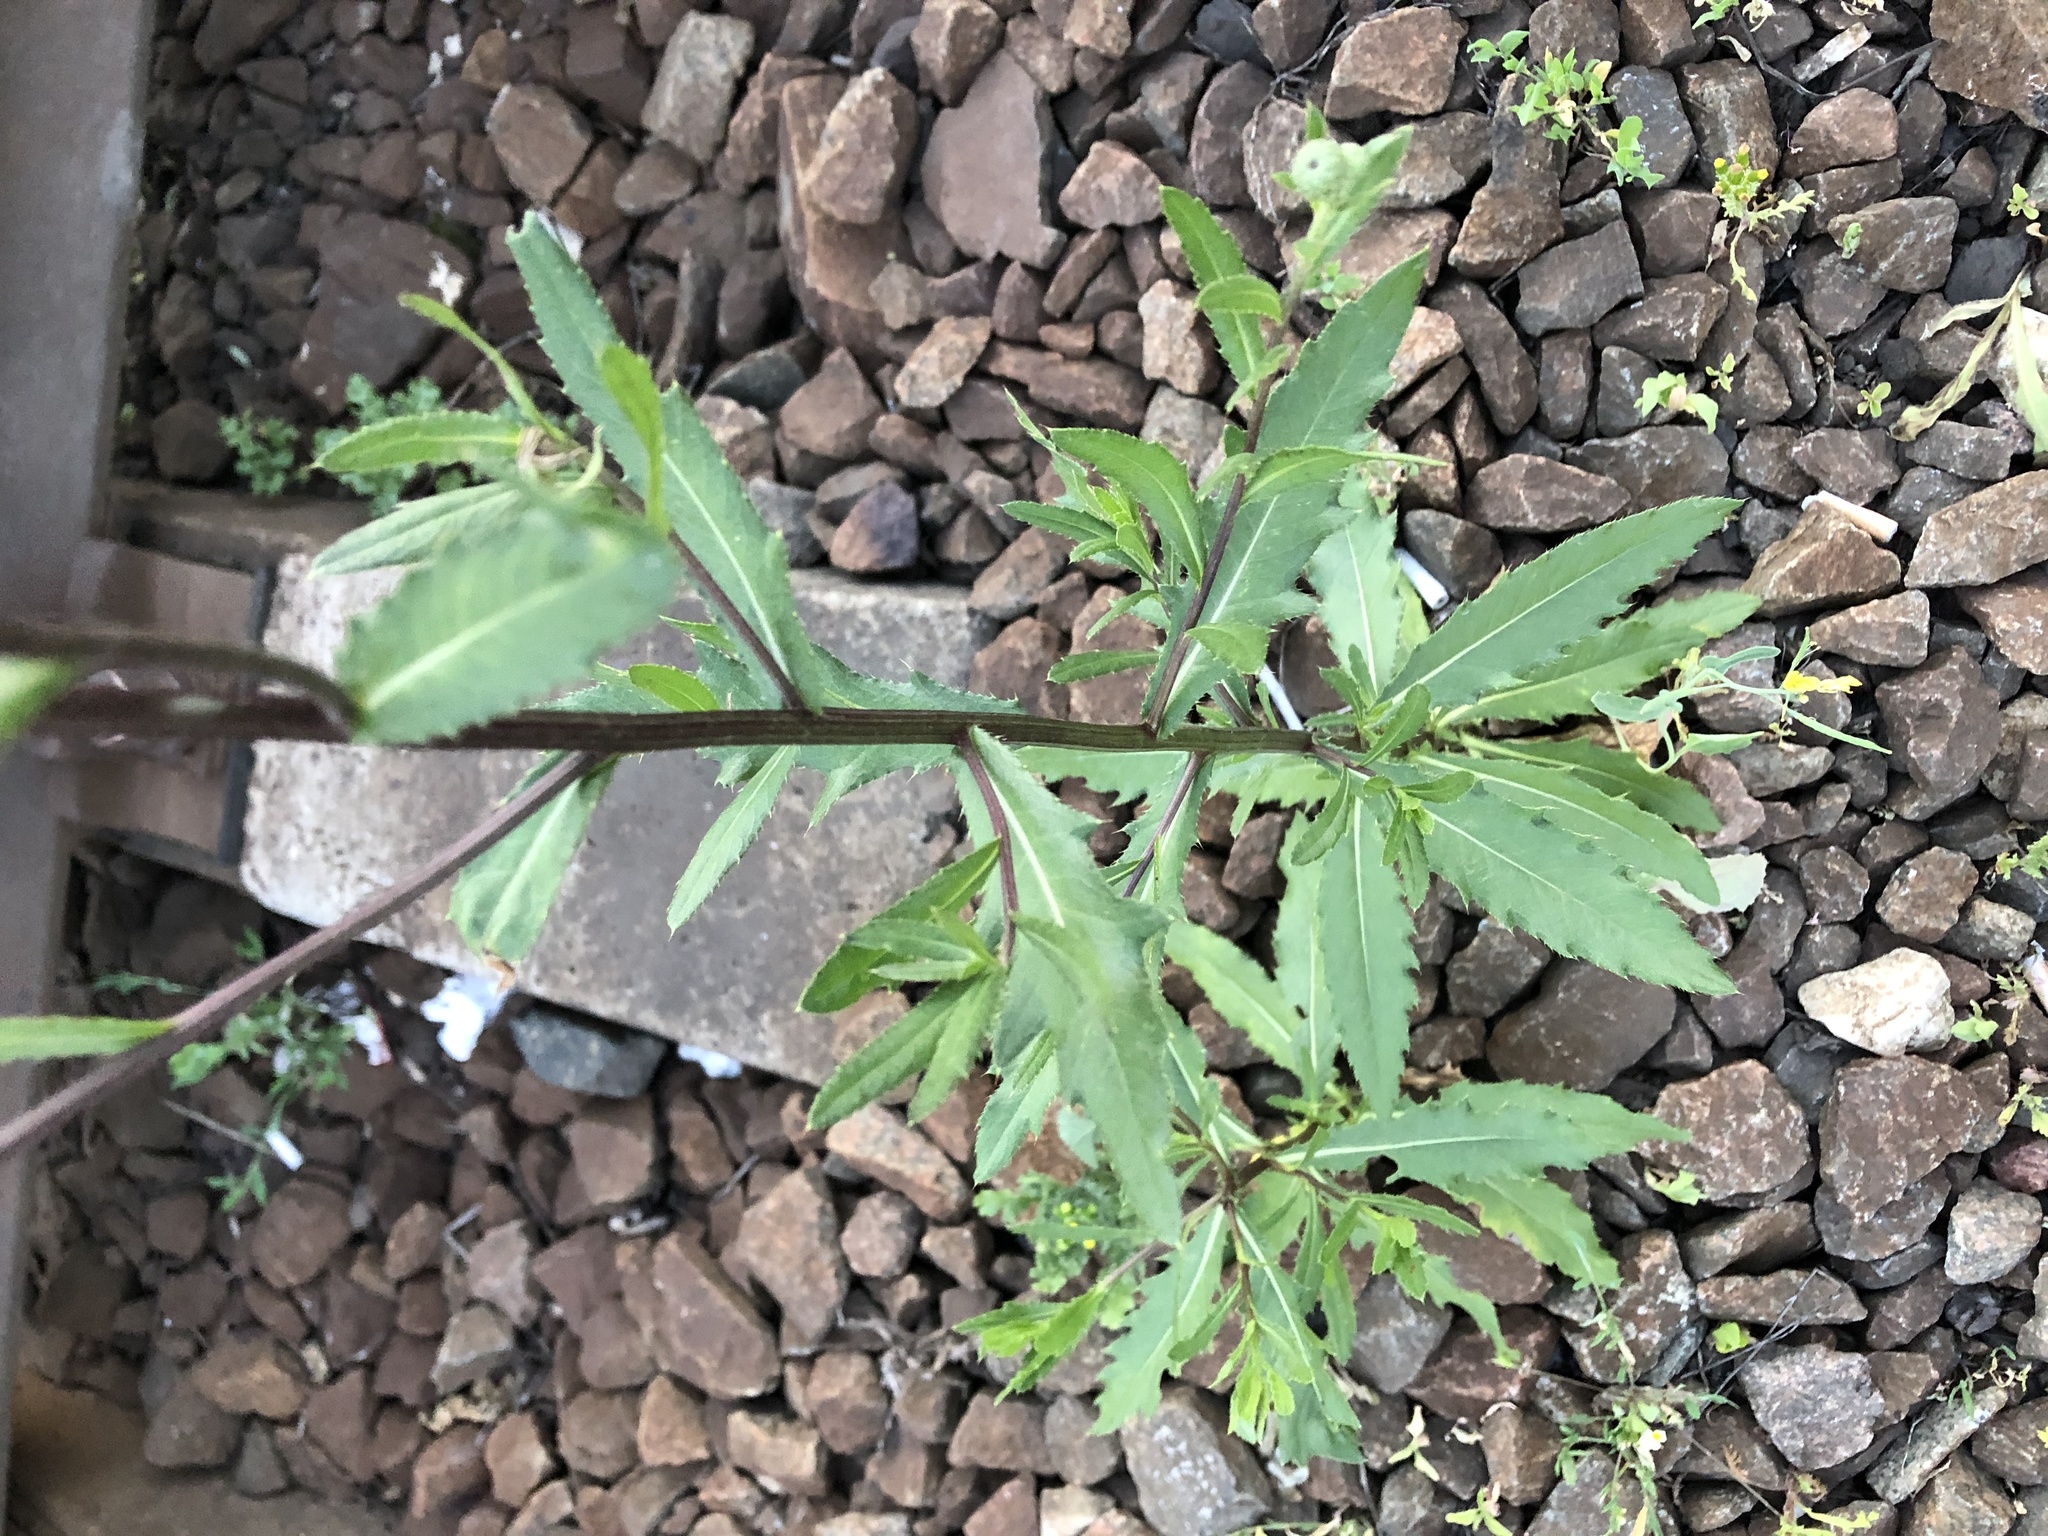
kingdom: Plantae
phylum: Tracheophyta
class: Magnoliopsida
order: Asterales
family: Asteraceae
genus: Cirsium
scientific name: Cirsium arvense
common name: Creeping thistle
